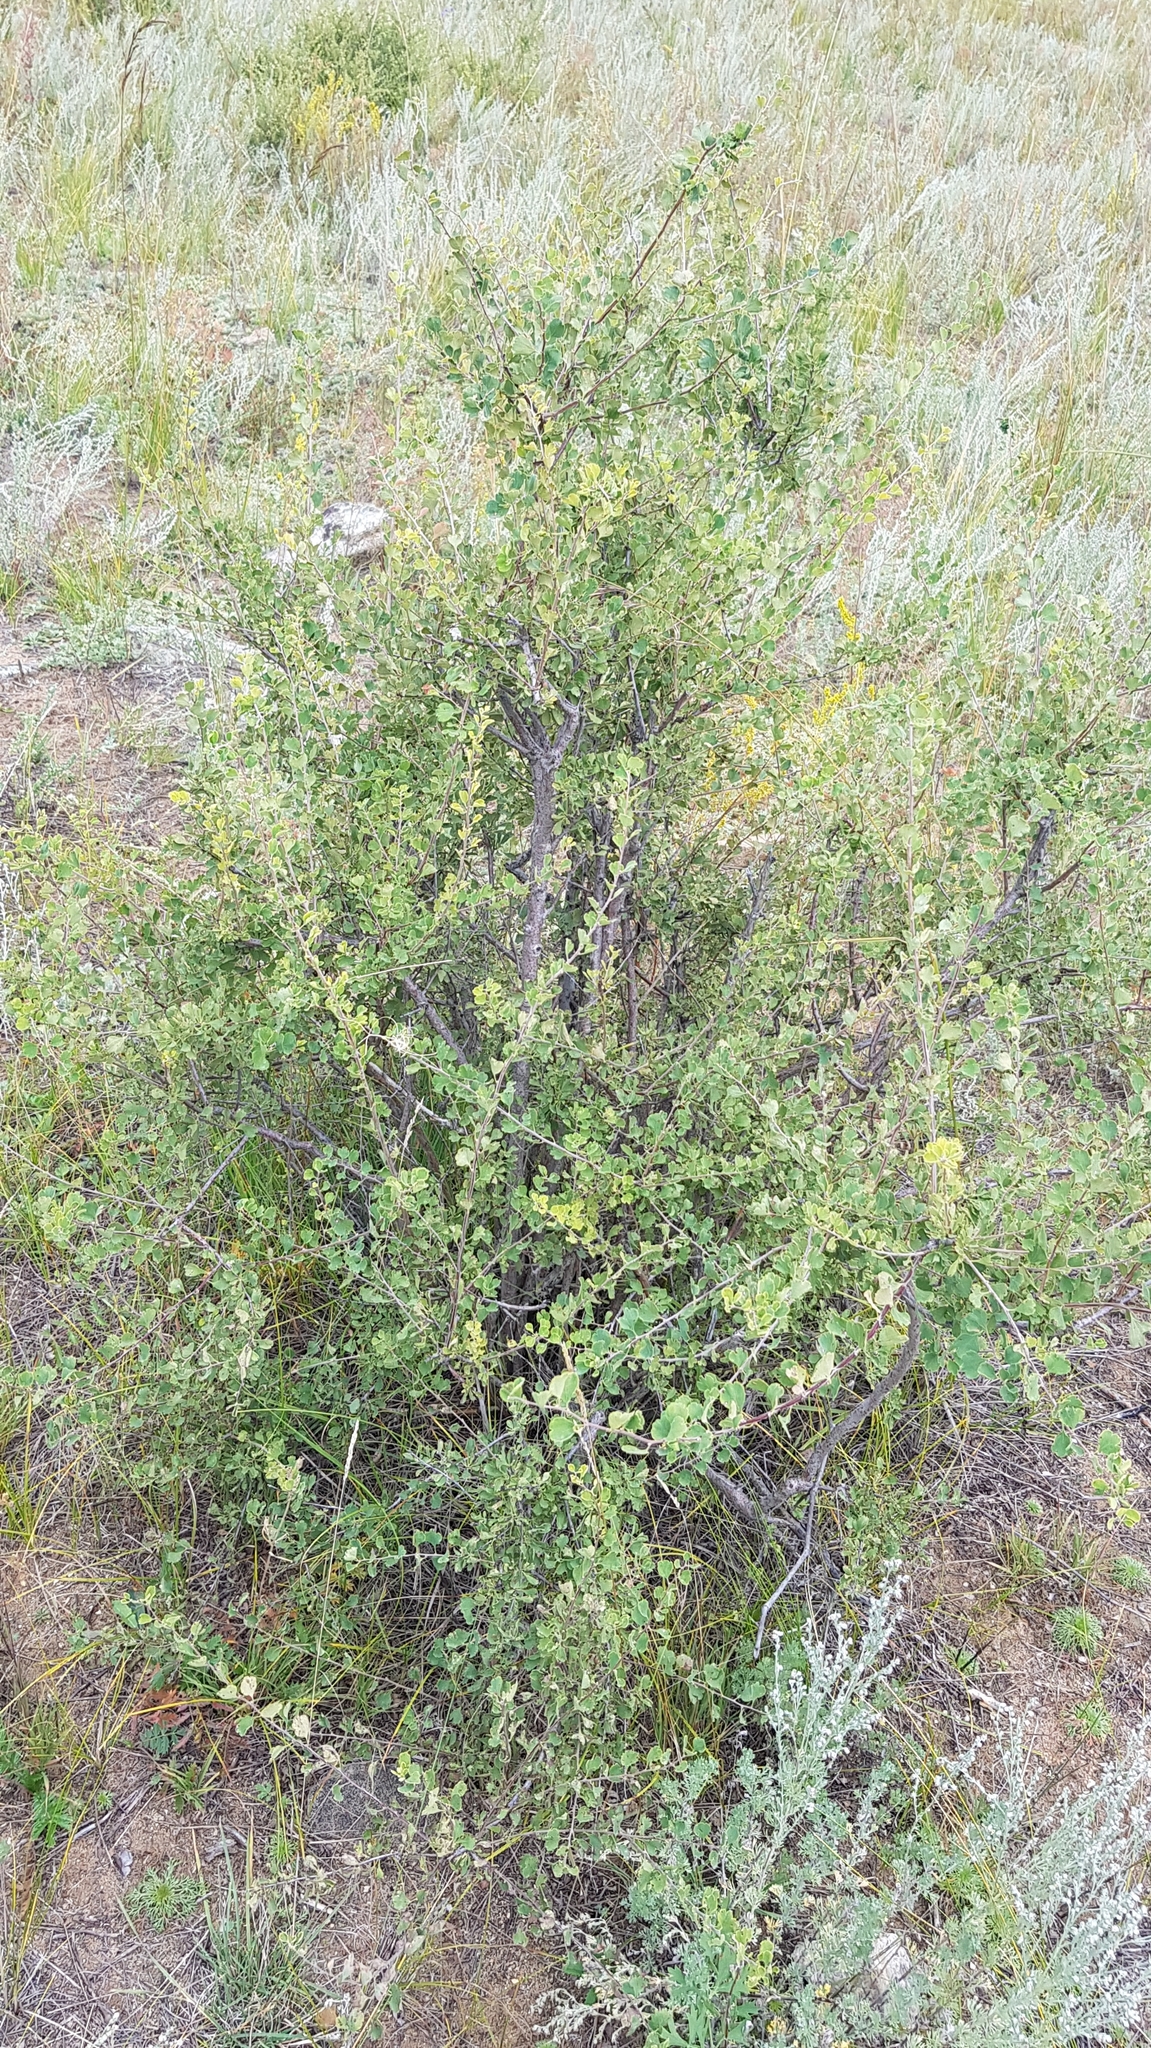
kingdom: Plantae
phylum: Tracheophyta
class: Magnoliopsida
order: Rosales
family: Rosaceae
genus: Spiraea
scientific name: Spiraea aquilegifolia
